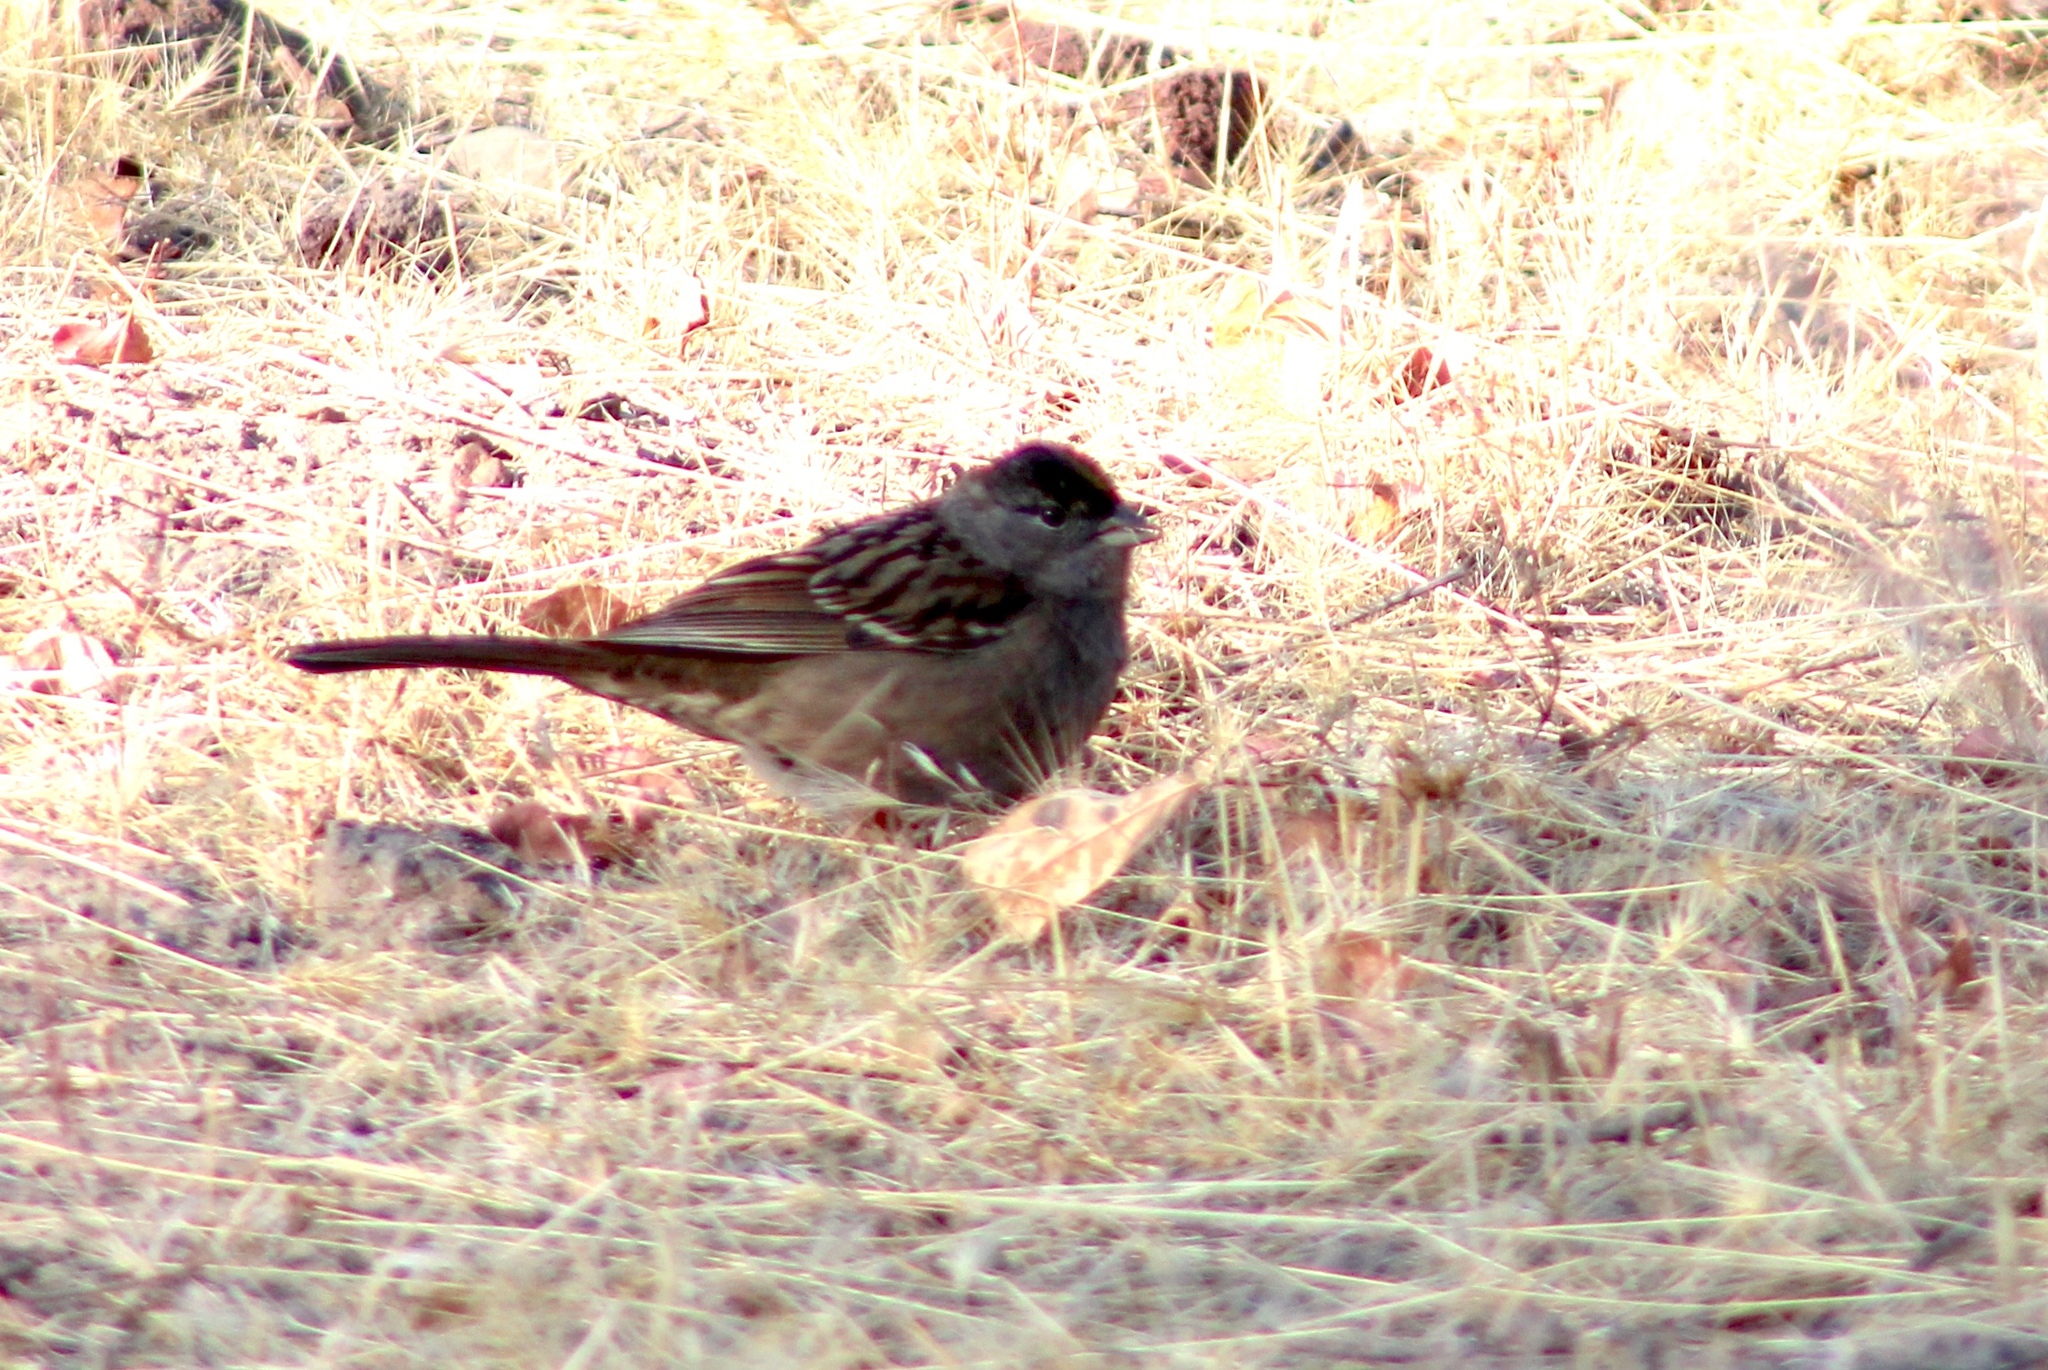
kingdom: Animalia
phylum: Chordata
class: Aves
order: Passeriformes
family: Passerellidae
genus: Zonotrichia
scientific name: Zonotrichia atricapilla
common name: Golden-crowned sparrow
